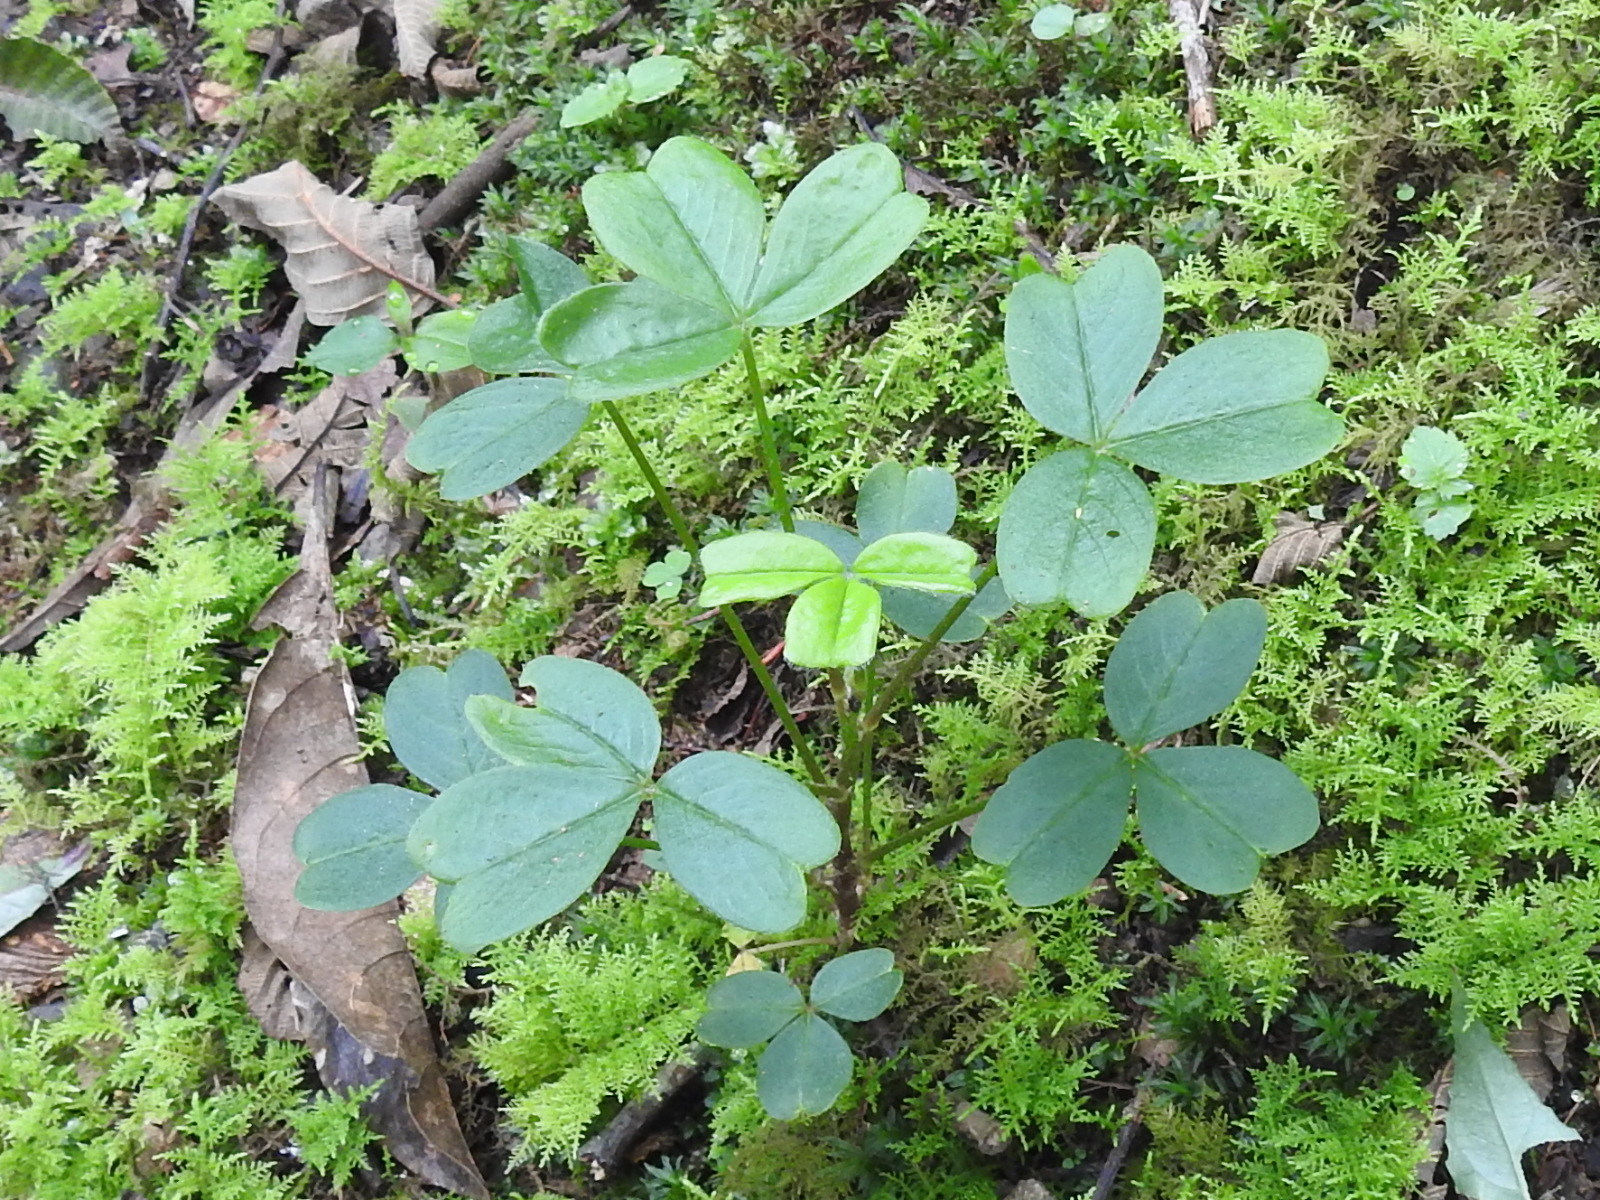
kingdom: Plantae
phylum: Tracheophyta
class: Magnoliopsida
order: Oxalidales
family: Oxalidaceae
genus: Oxalis
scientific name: Oxalis spiralis
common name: Spiral sorrel
